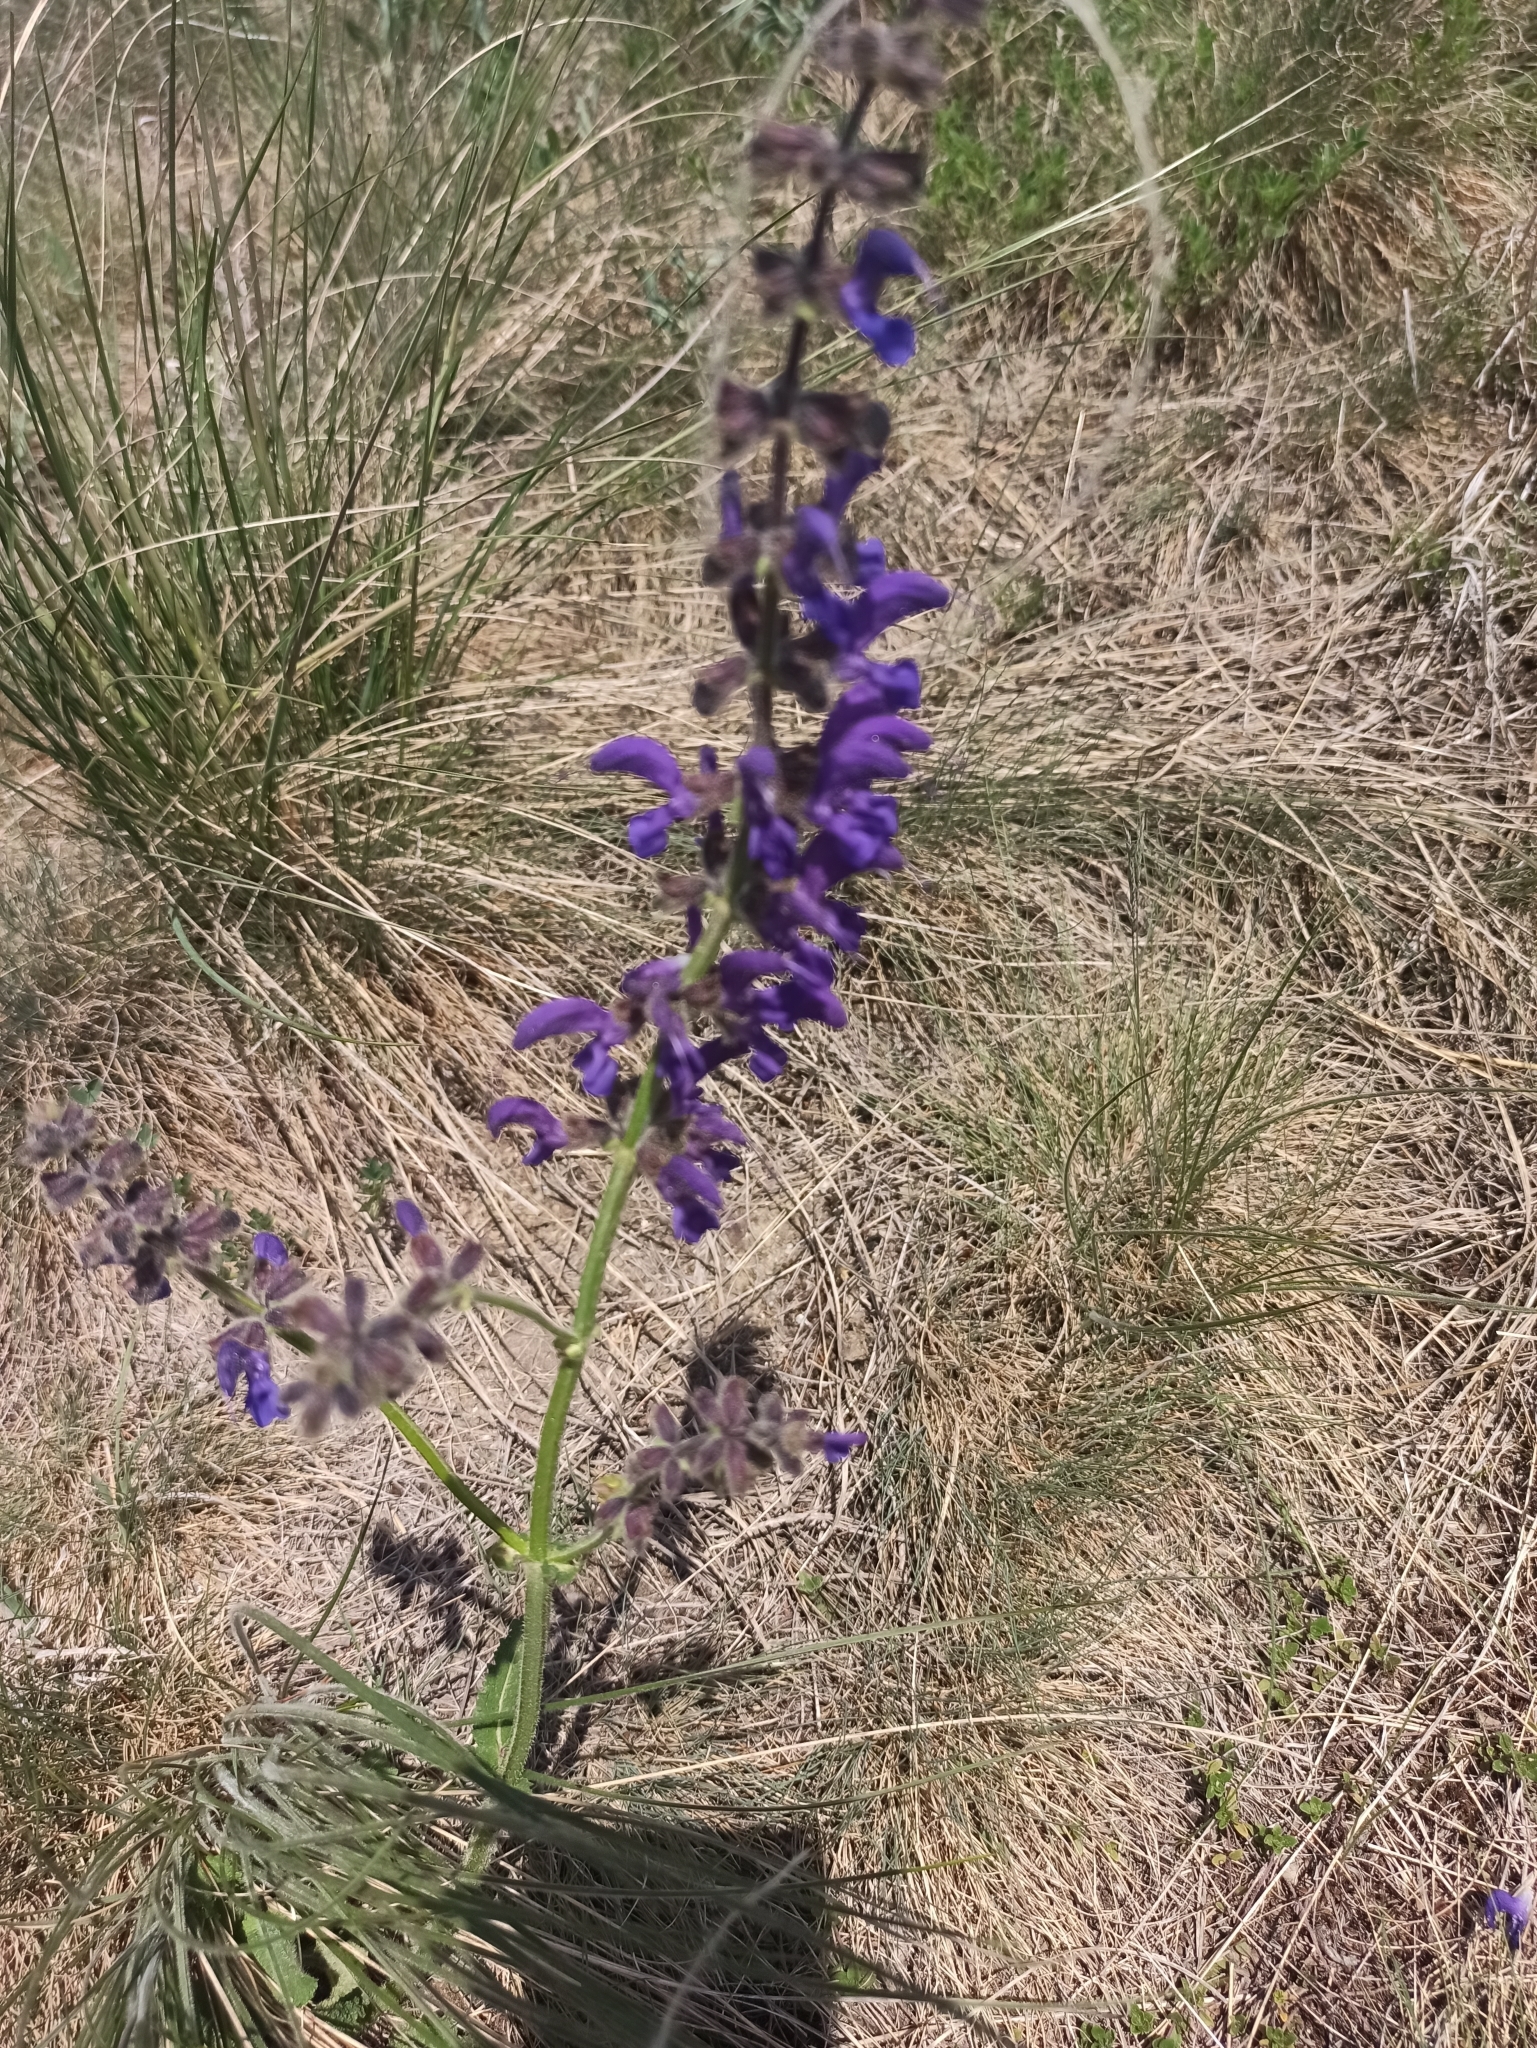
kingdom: Plantae
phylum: Tracheophyta
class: Magnoliopsida
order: Lamiales
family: Lamiaceae
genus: Salvia
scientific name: Salvia pratensis
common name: Meadow sage
